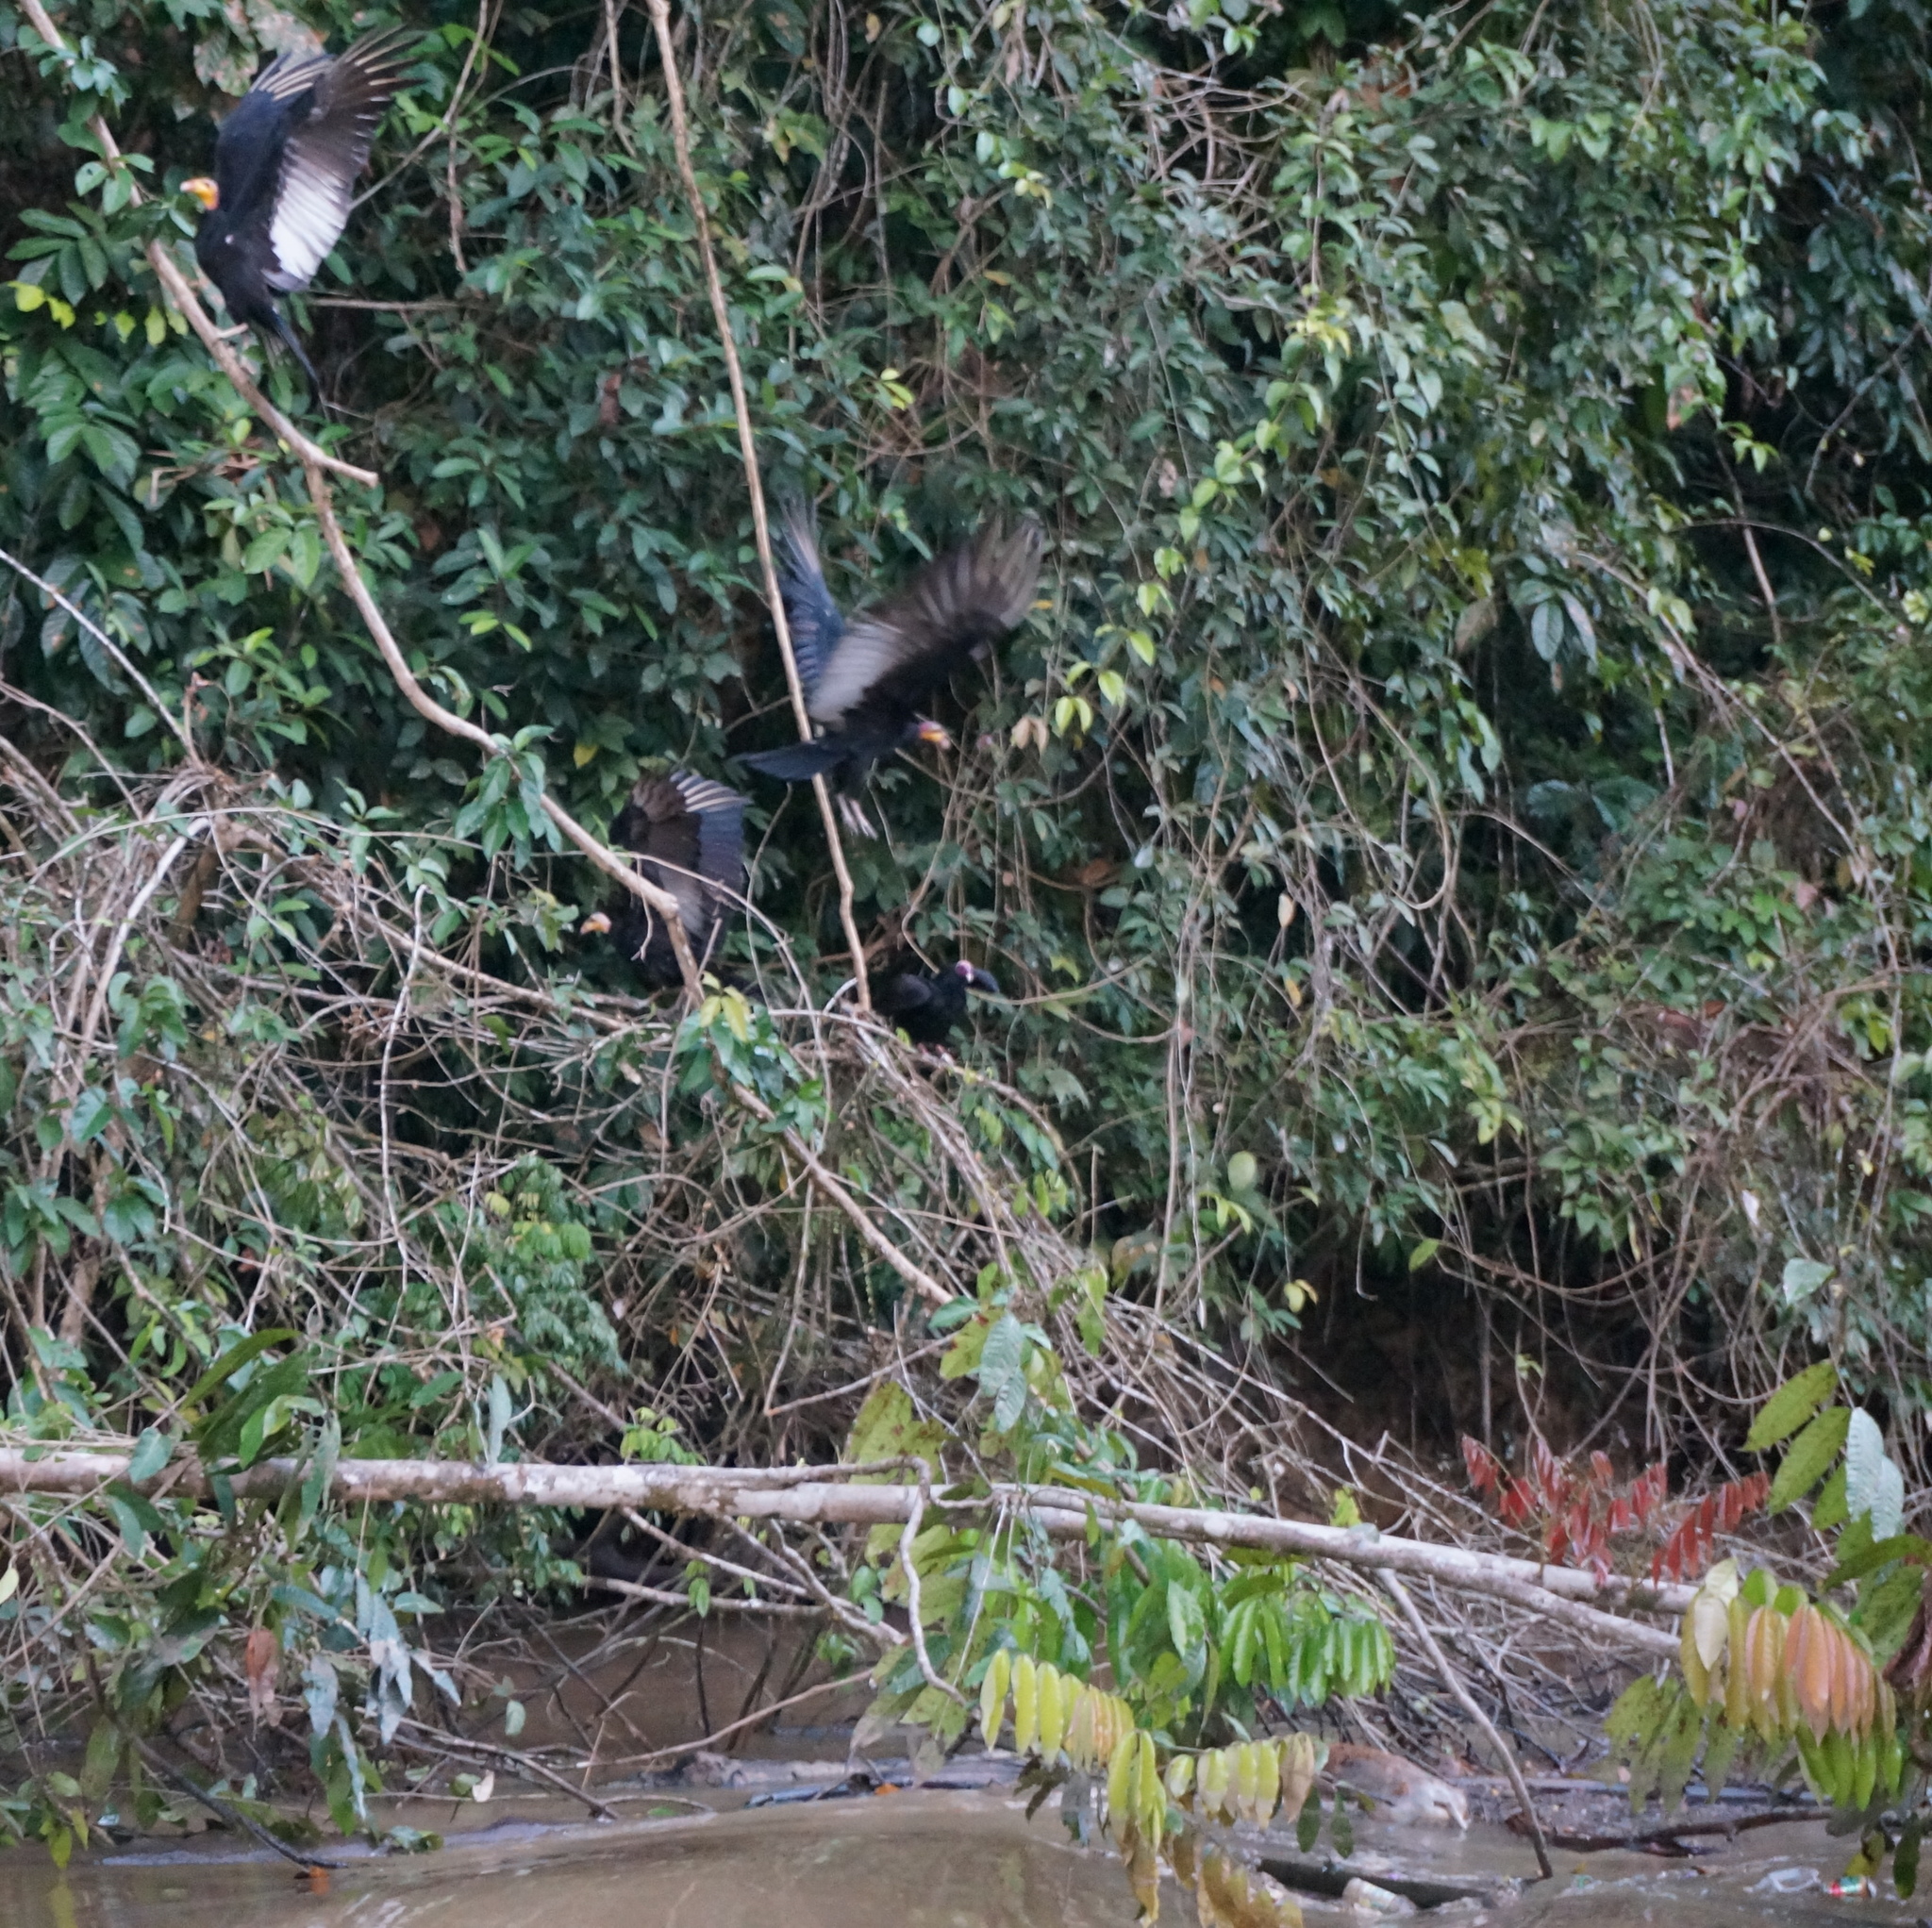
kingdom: Animalia
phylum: Chordata
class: Aves
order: Accipitriformes
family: Cathartidae
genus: Cathartes
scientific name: Cathartes burrovianus
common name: Lesser yellow-headed vulture
